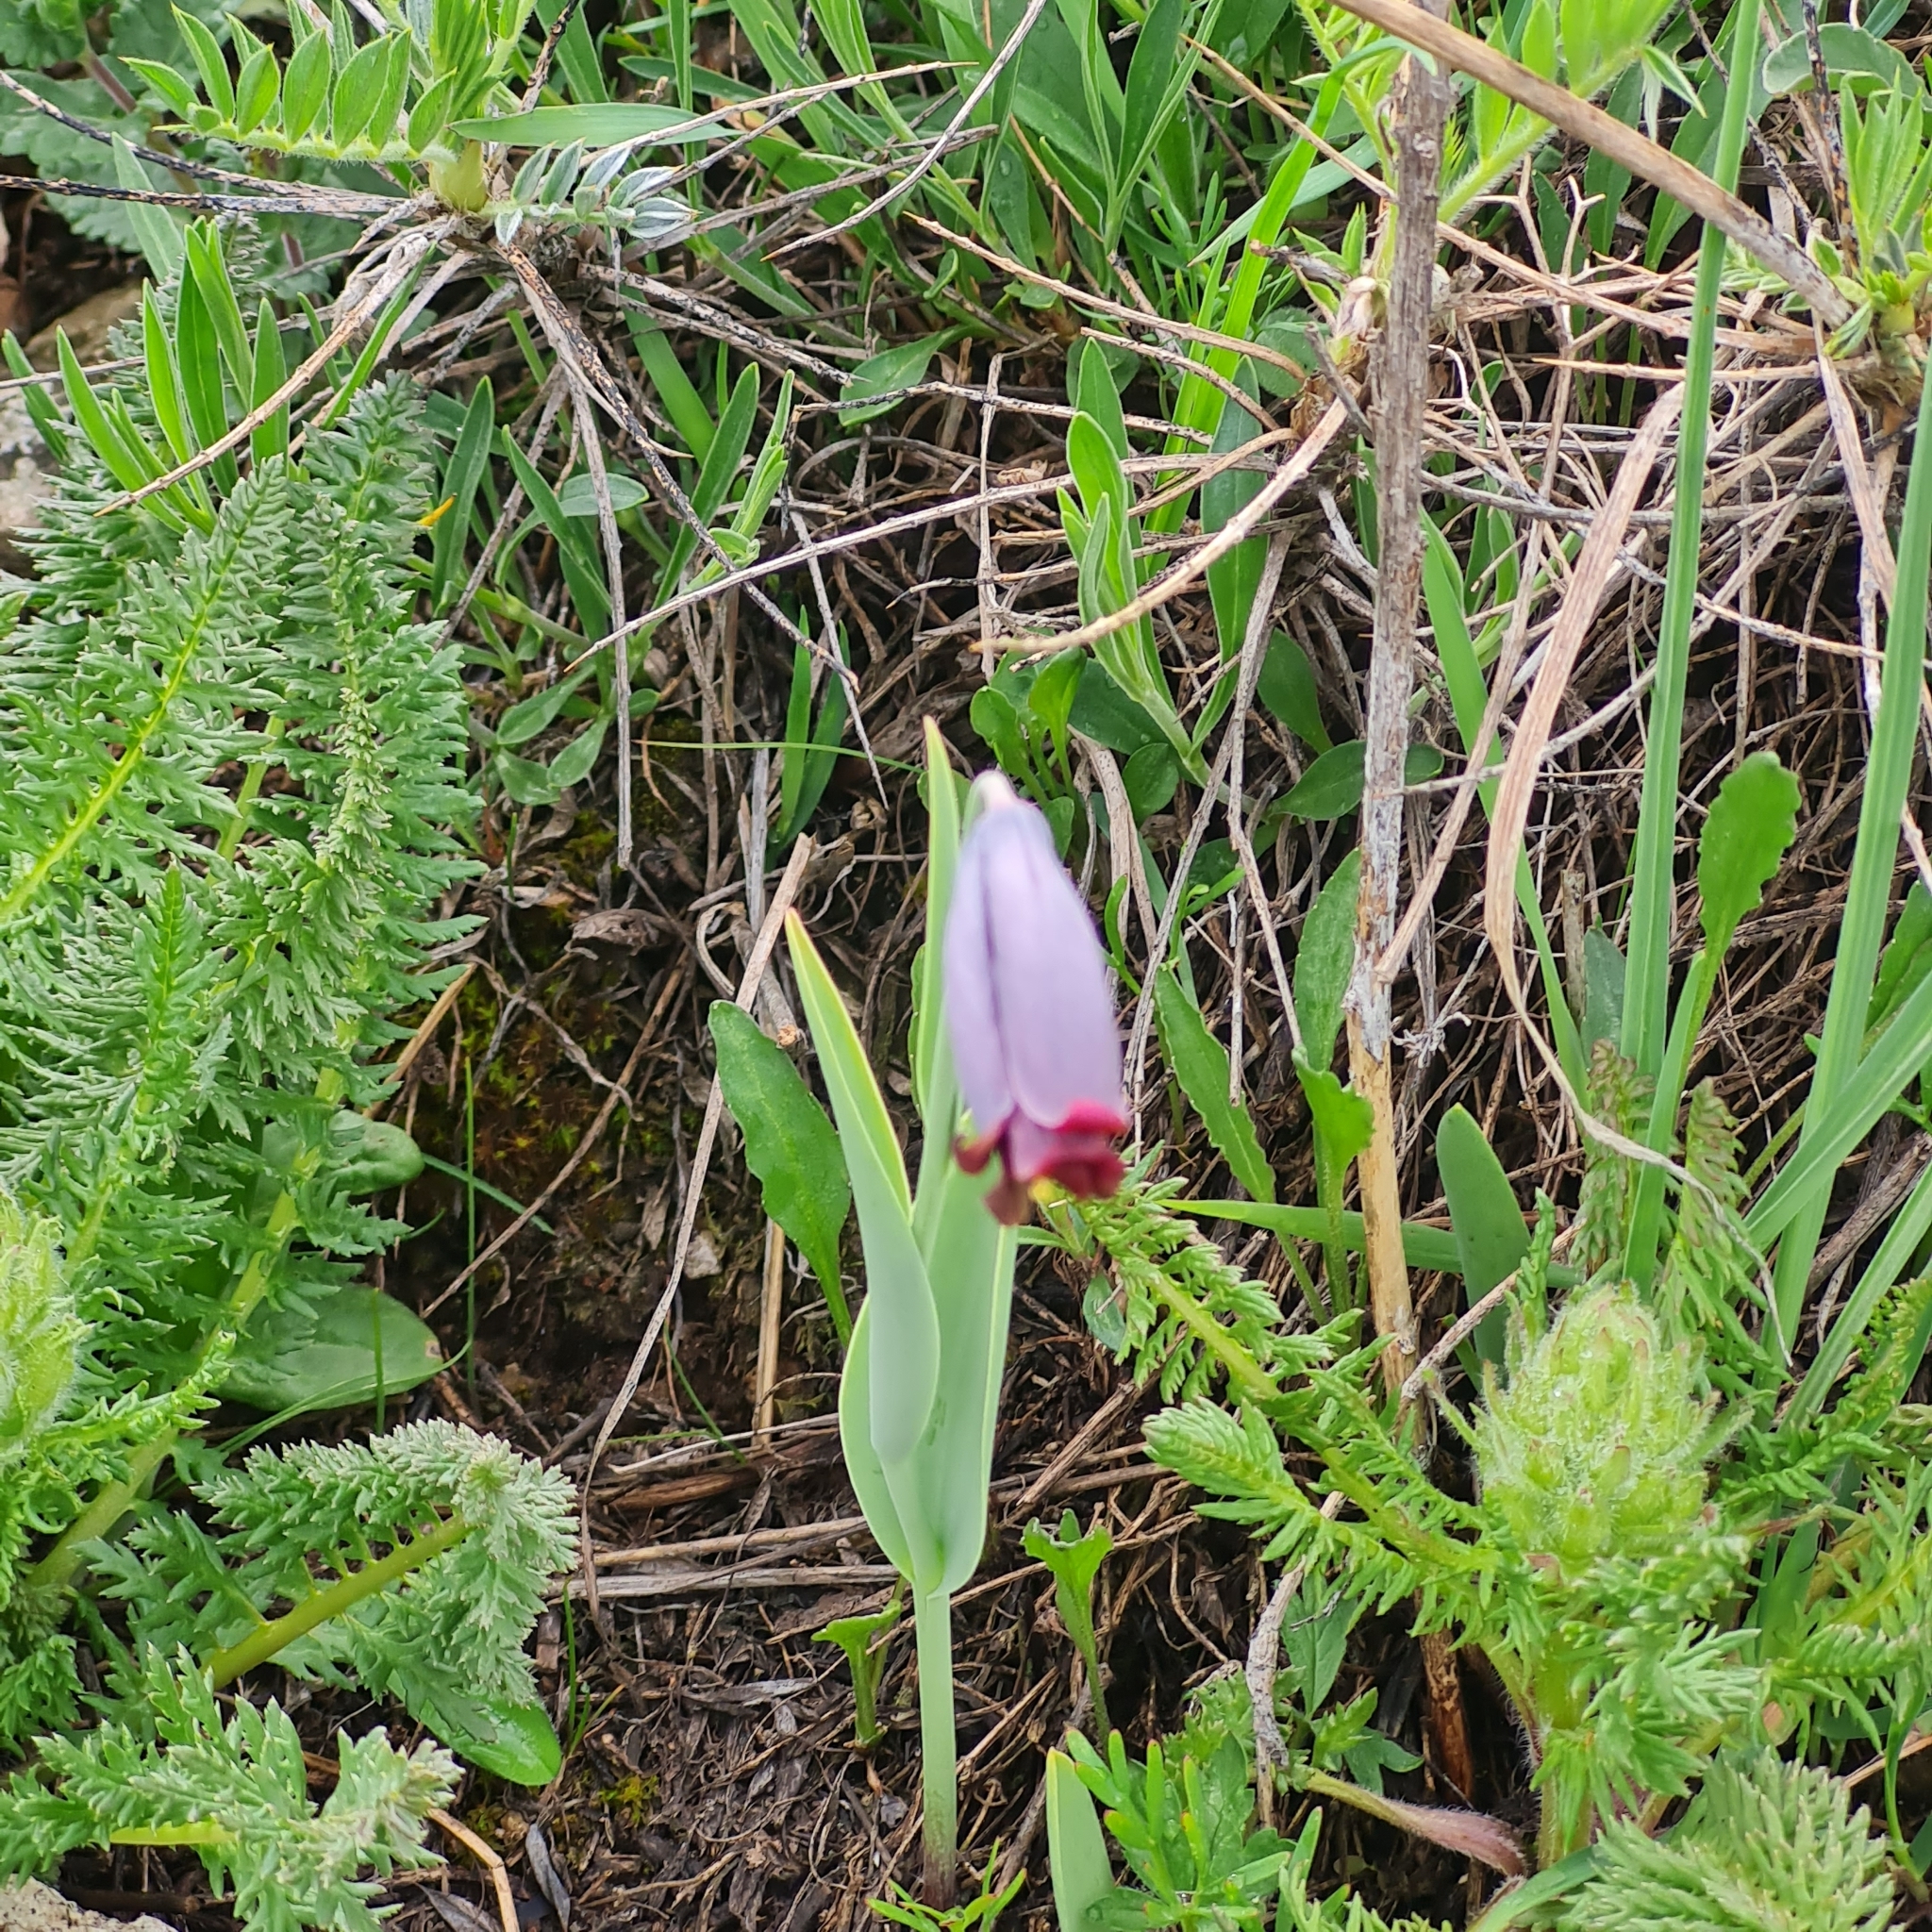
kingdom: Plantae
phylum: Tracheophyta
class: Liliopsida
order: Liliales
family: Liliaceae
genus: Fritillaria
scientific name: Fritillaria caucasica
